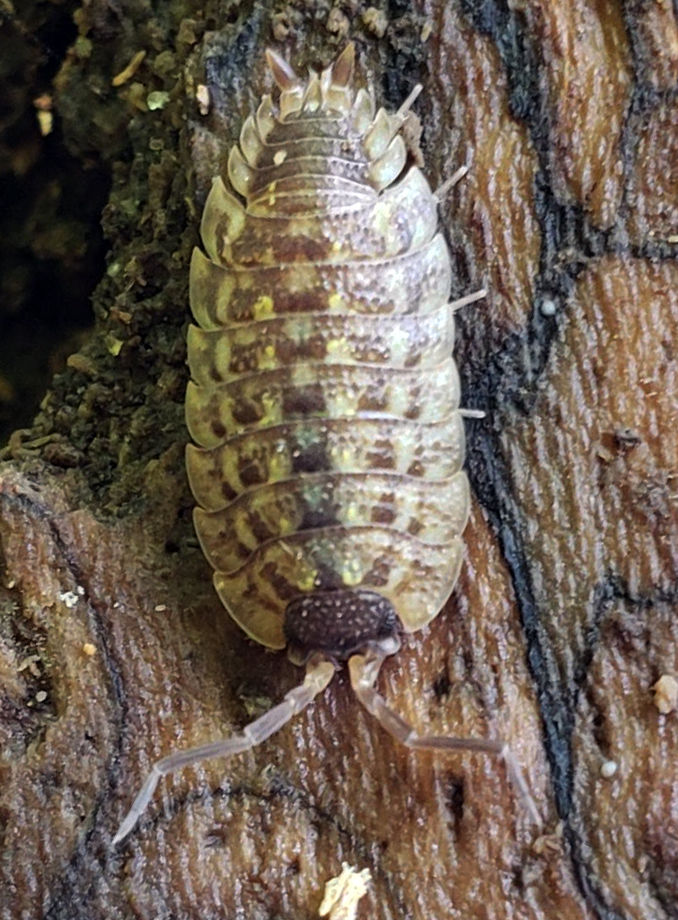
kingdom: Animalia
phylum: Arthropoda
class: Malacostraca
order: Isopoda
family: Porcellionidae
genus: Porcellio
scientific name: Porcellio spinicornis
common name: Painted woodlouse
